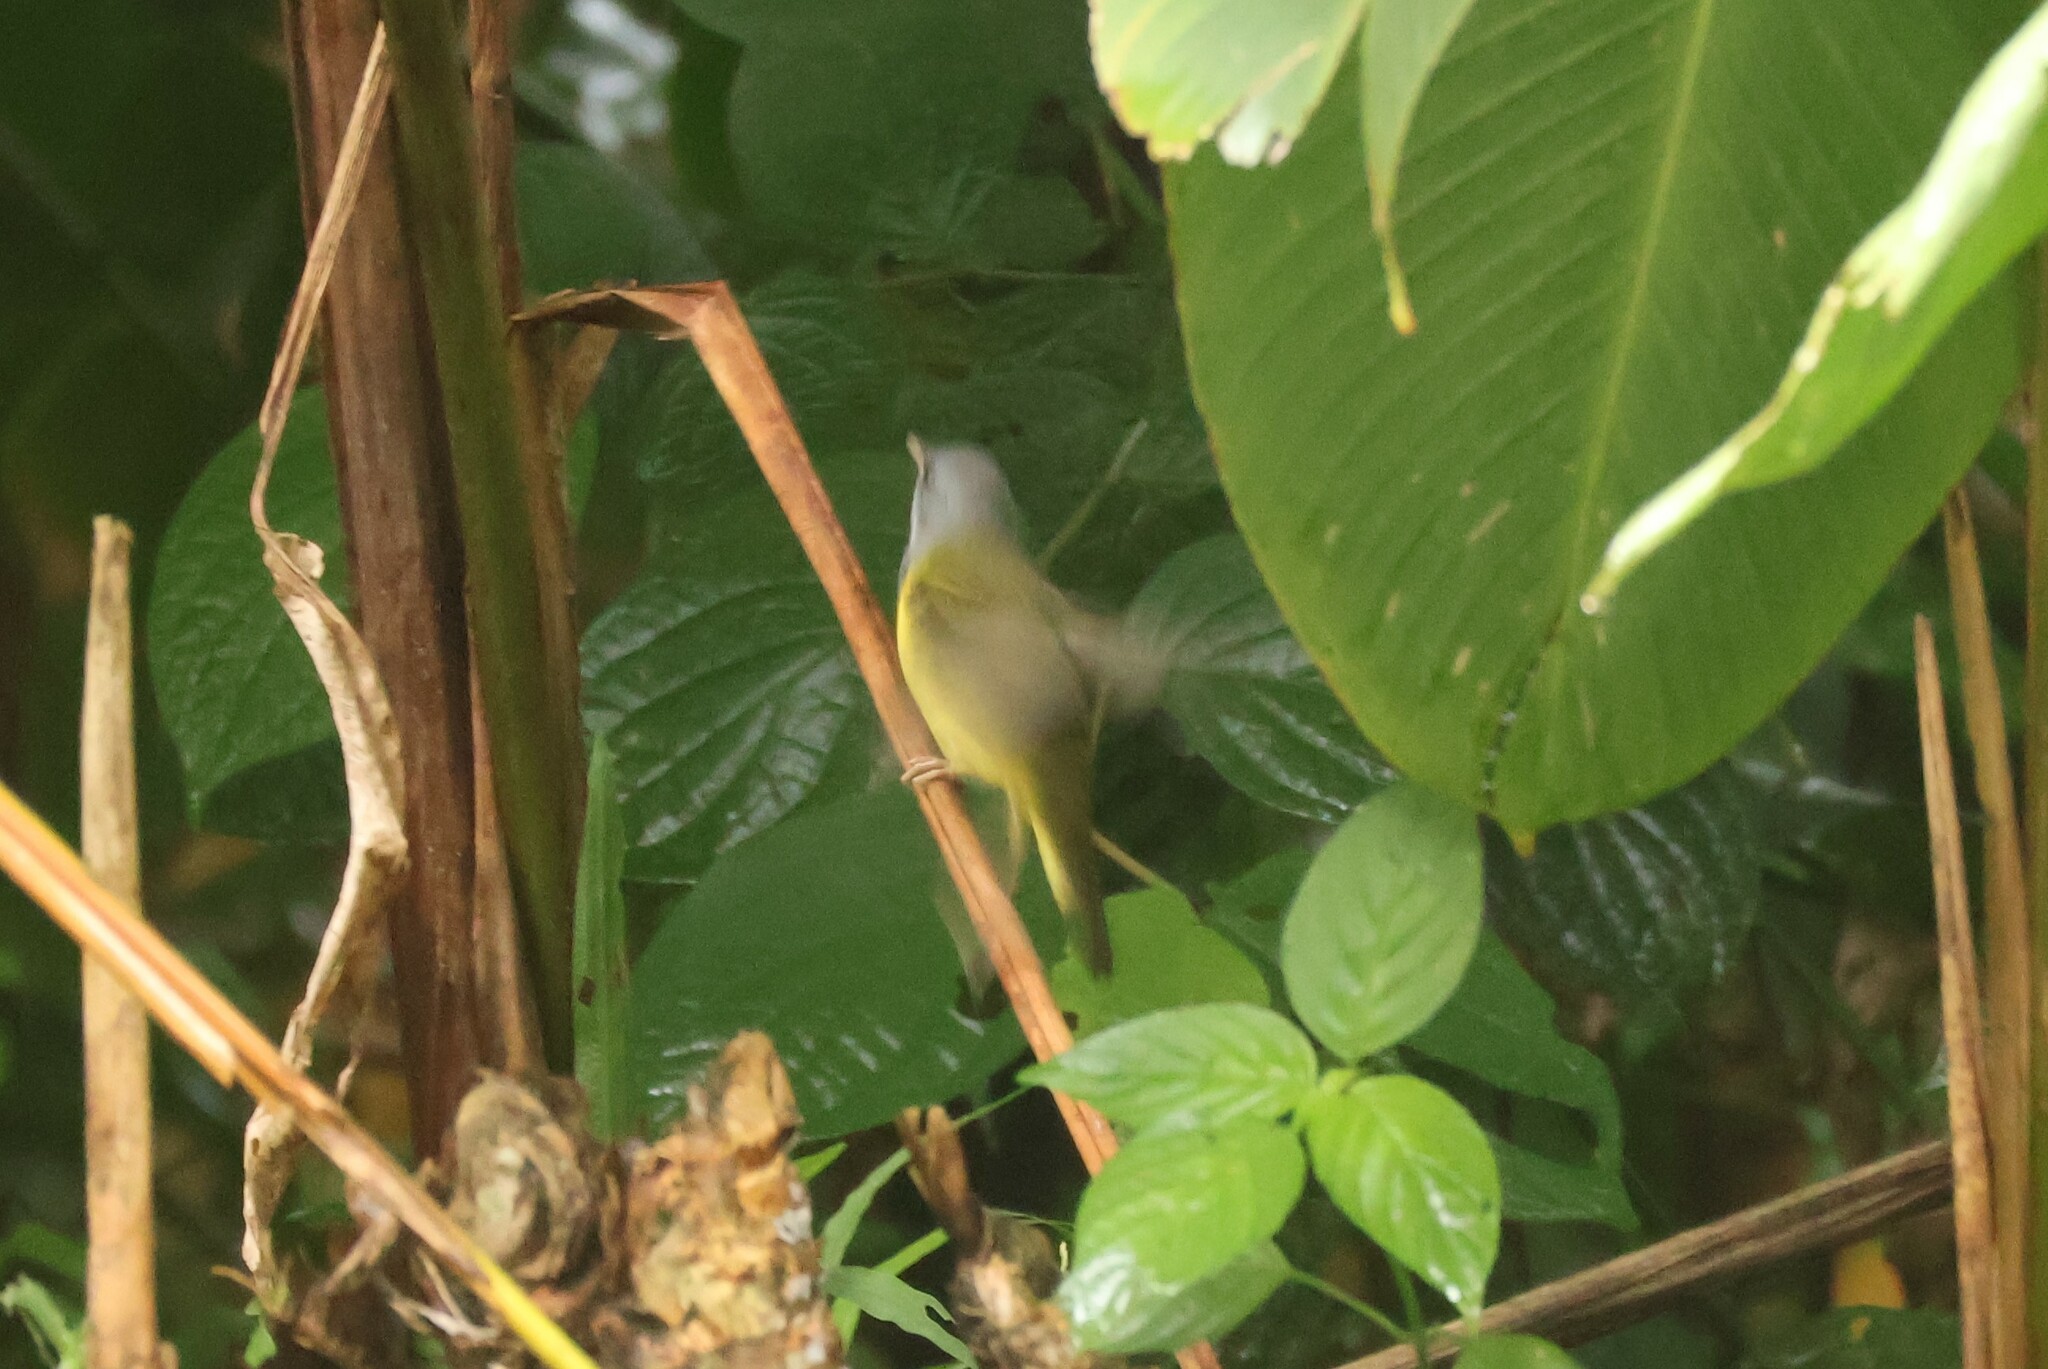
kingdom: Animalia
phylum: Chordata
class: Aves
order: Passeriformes
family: Parulidae
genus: Geothlypis
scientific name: Geothlypis philadelphia
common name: Mourning warbler
